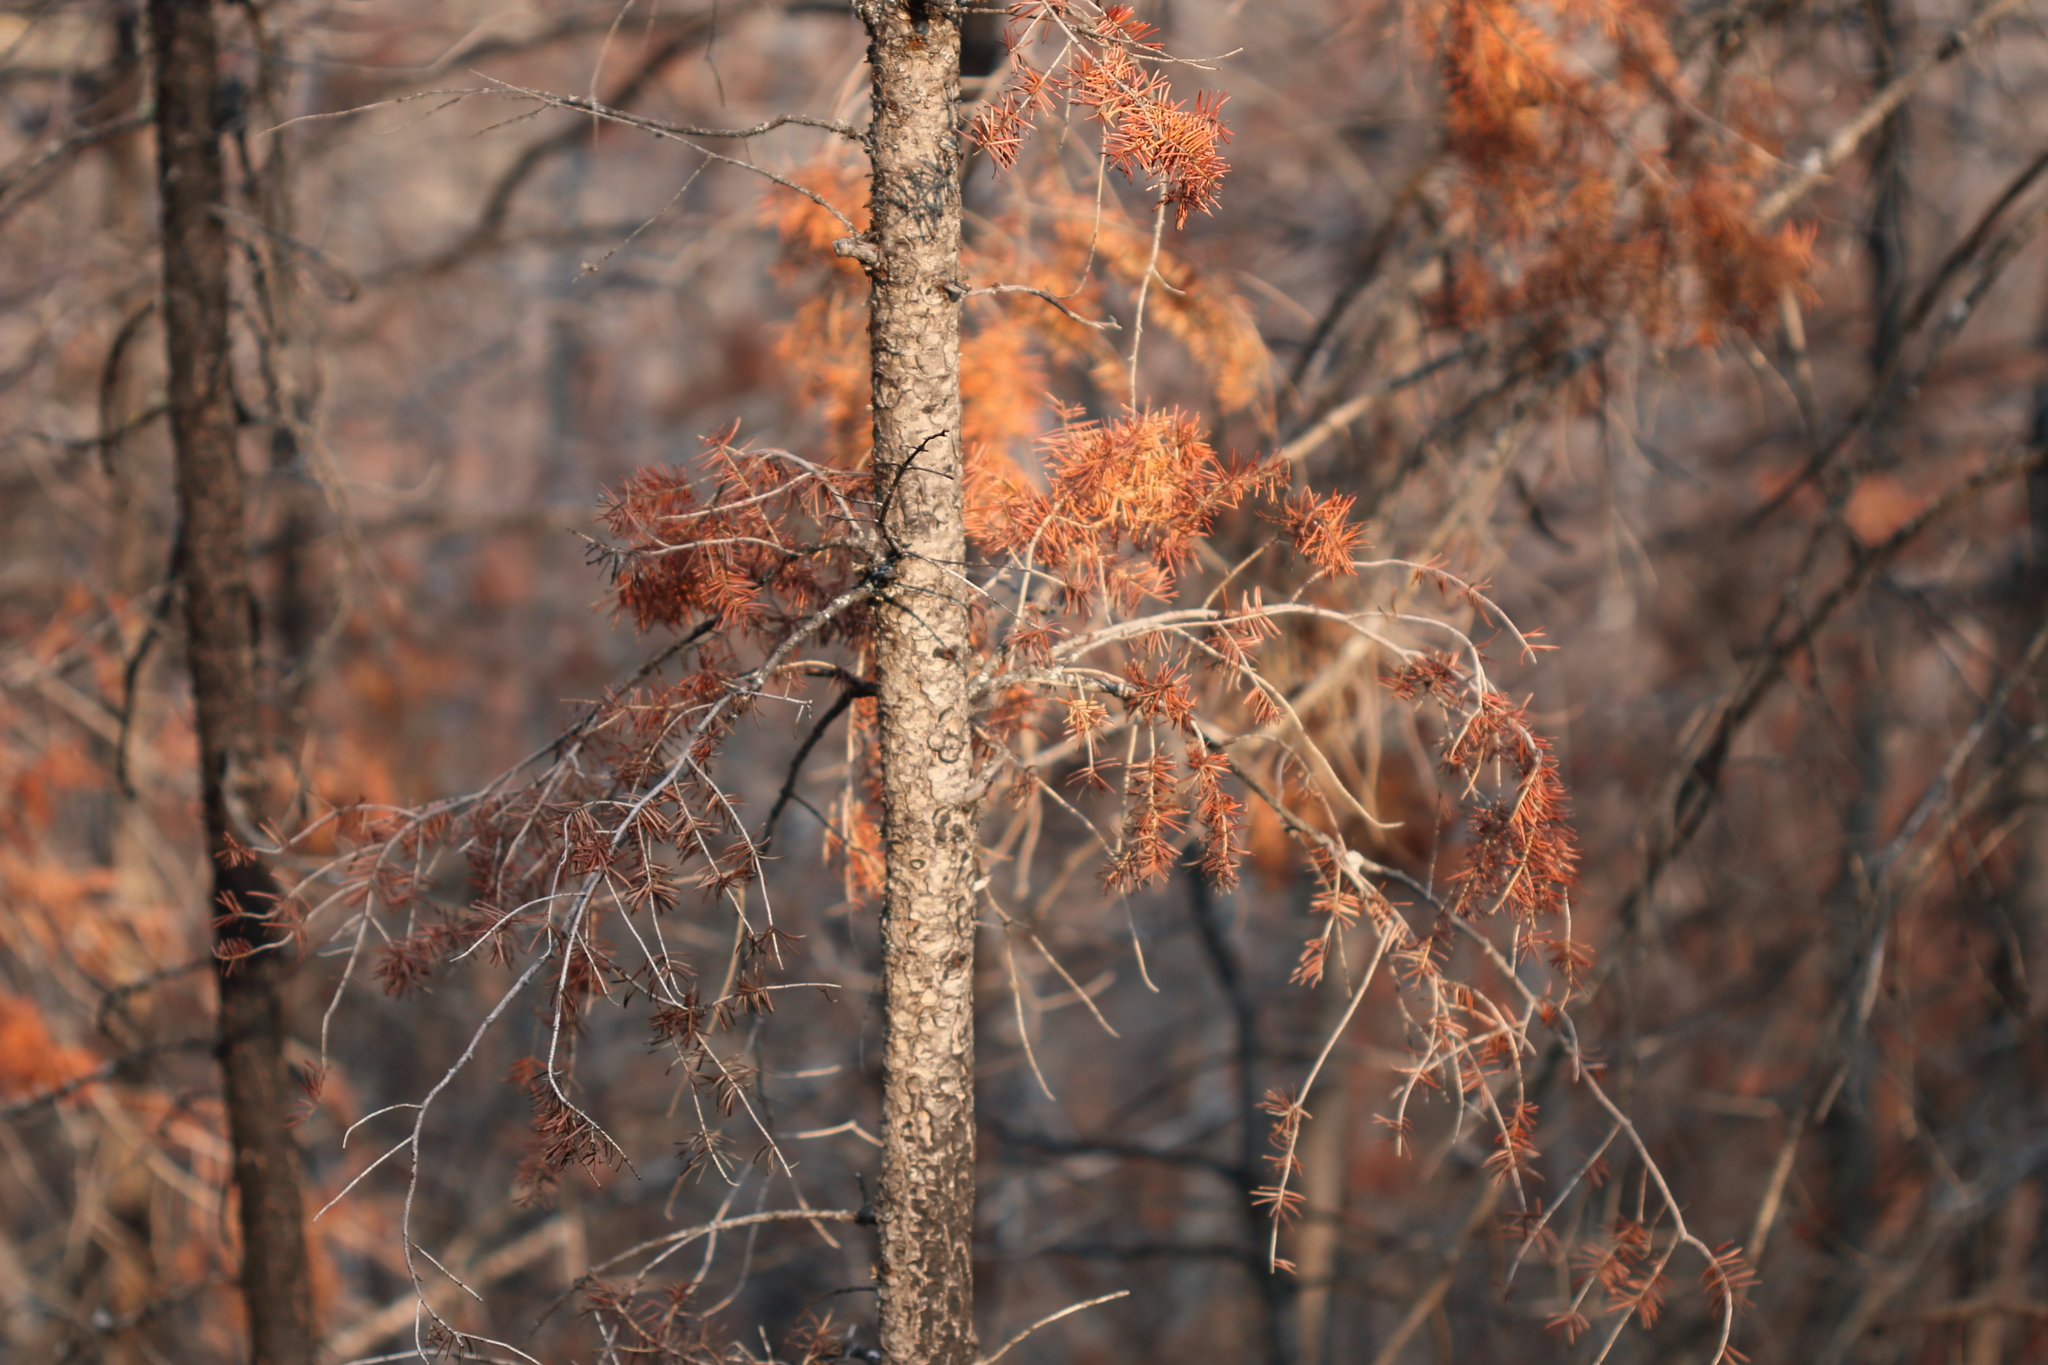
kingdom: Plantae
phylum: Tracheophyta
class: Pinopsida
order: Pinales
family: Pinaceae
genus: Pseudotsuga
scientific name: Pseudotsuga menziesii
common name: Douglas fir
